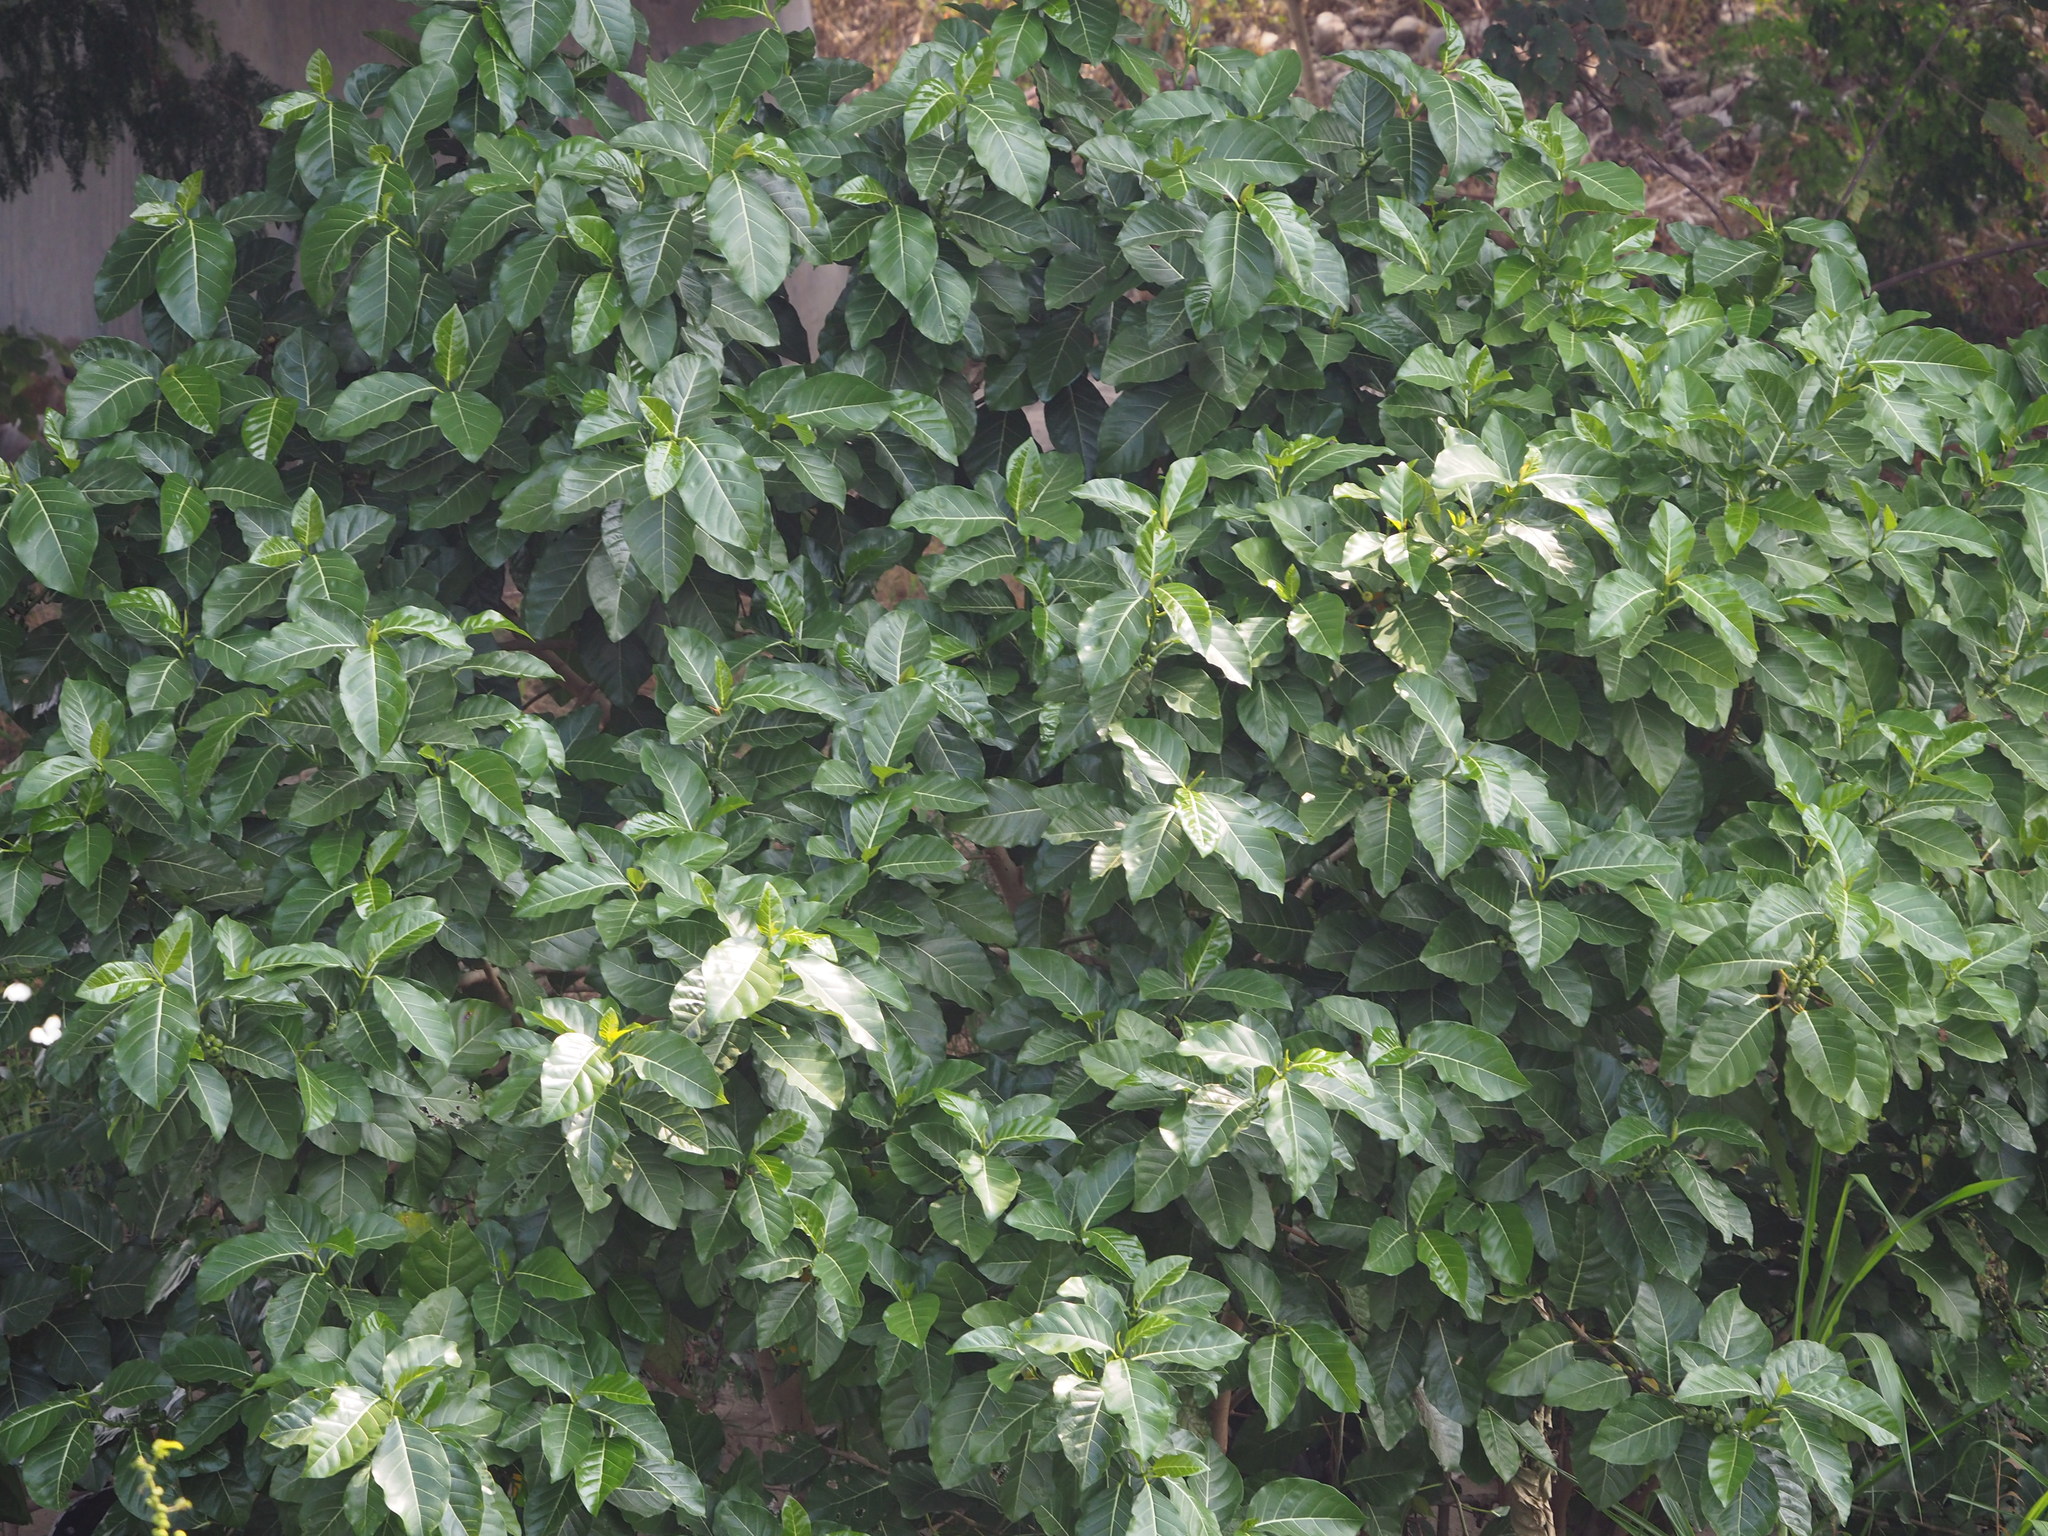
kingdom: Plantae
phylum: Tracheophyta
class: Magnoliopsida
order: Rosales
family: Moraceae
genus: Ficus
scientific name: Ficus septica
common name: Septic fig
